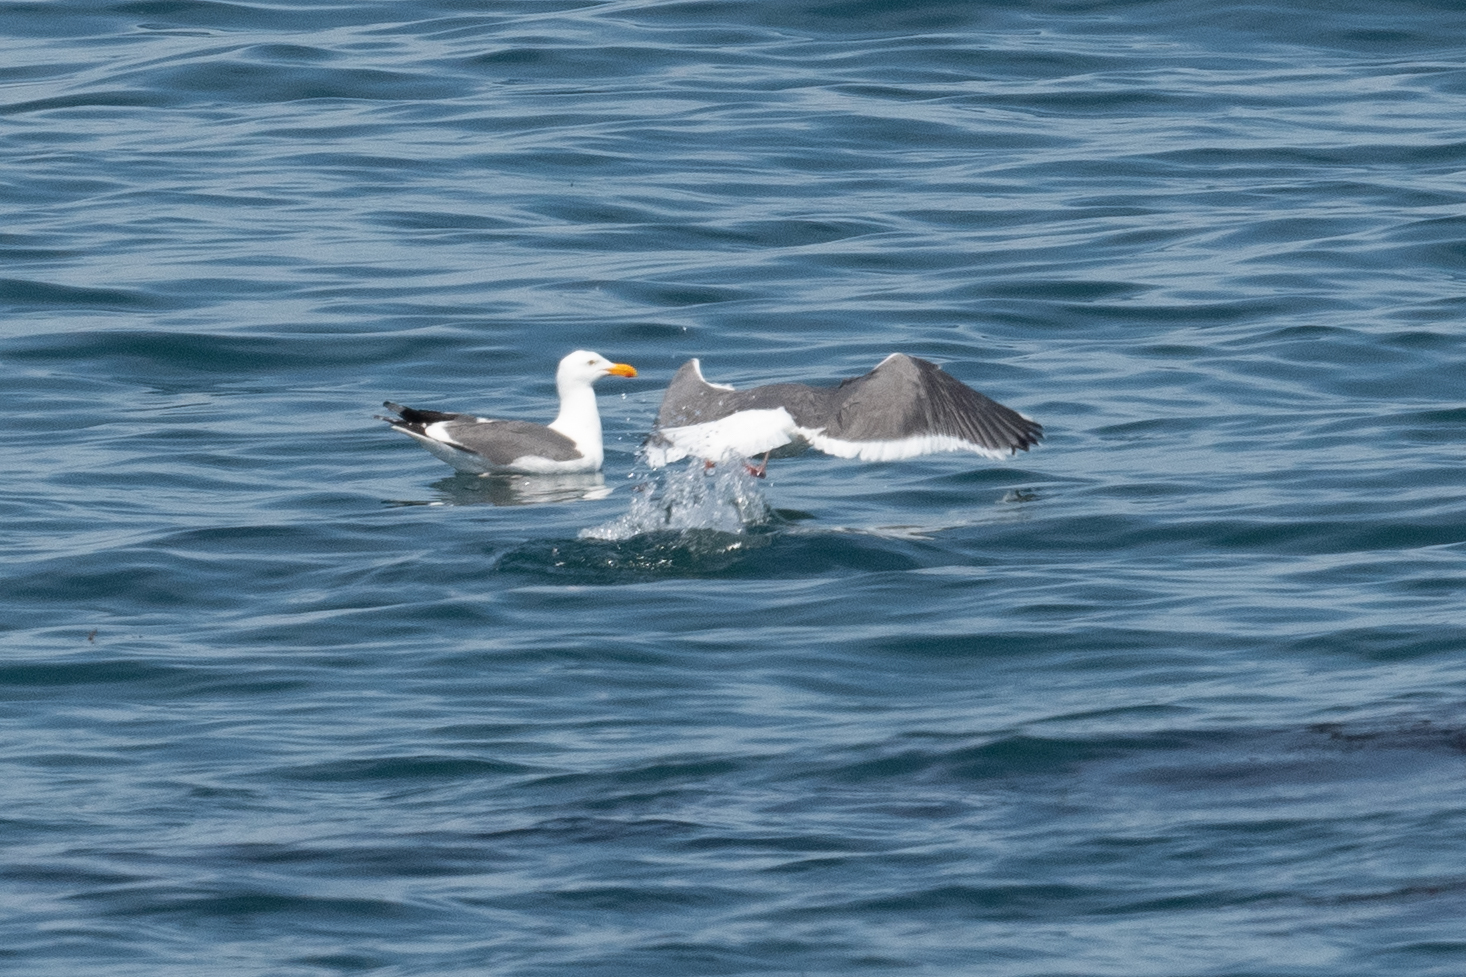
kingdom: Animalia
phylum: Chordata
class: Aves
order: Charadriiformes
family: Laridae
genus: Larus
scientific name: Larus occidentalis
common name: Western gull
